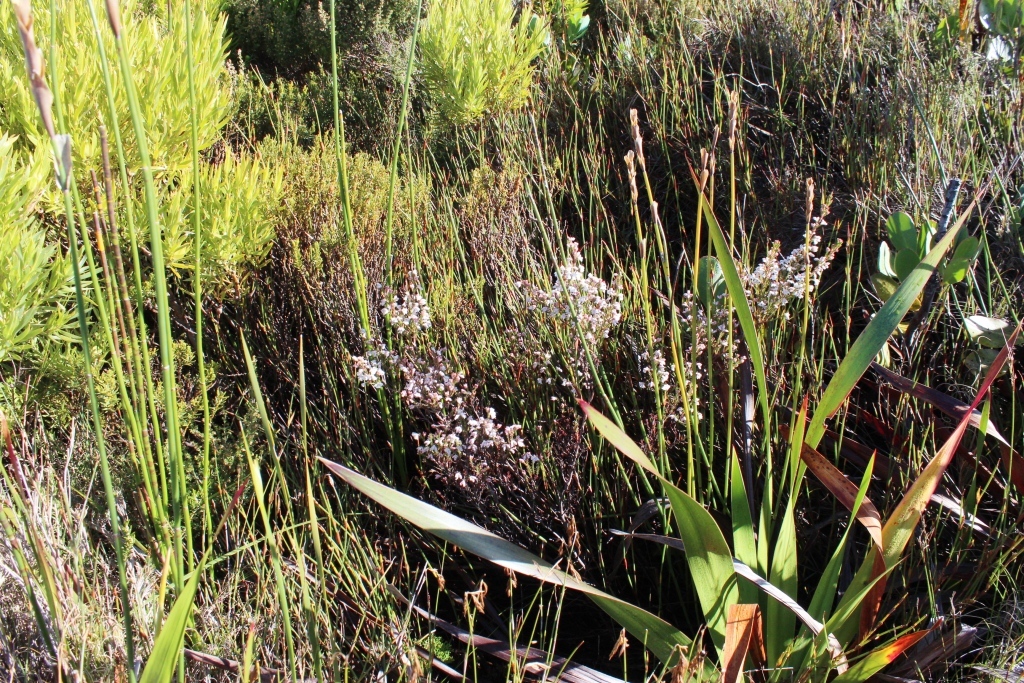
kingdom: Plantae
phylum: Tracheophyta
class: Magnoliopsida
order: Ericales
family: Ericaceae
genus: Erica
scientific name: Erica calycina
